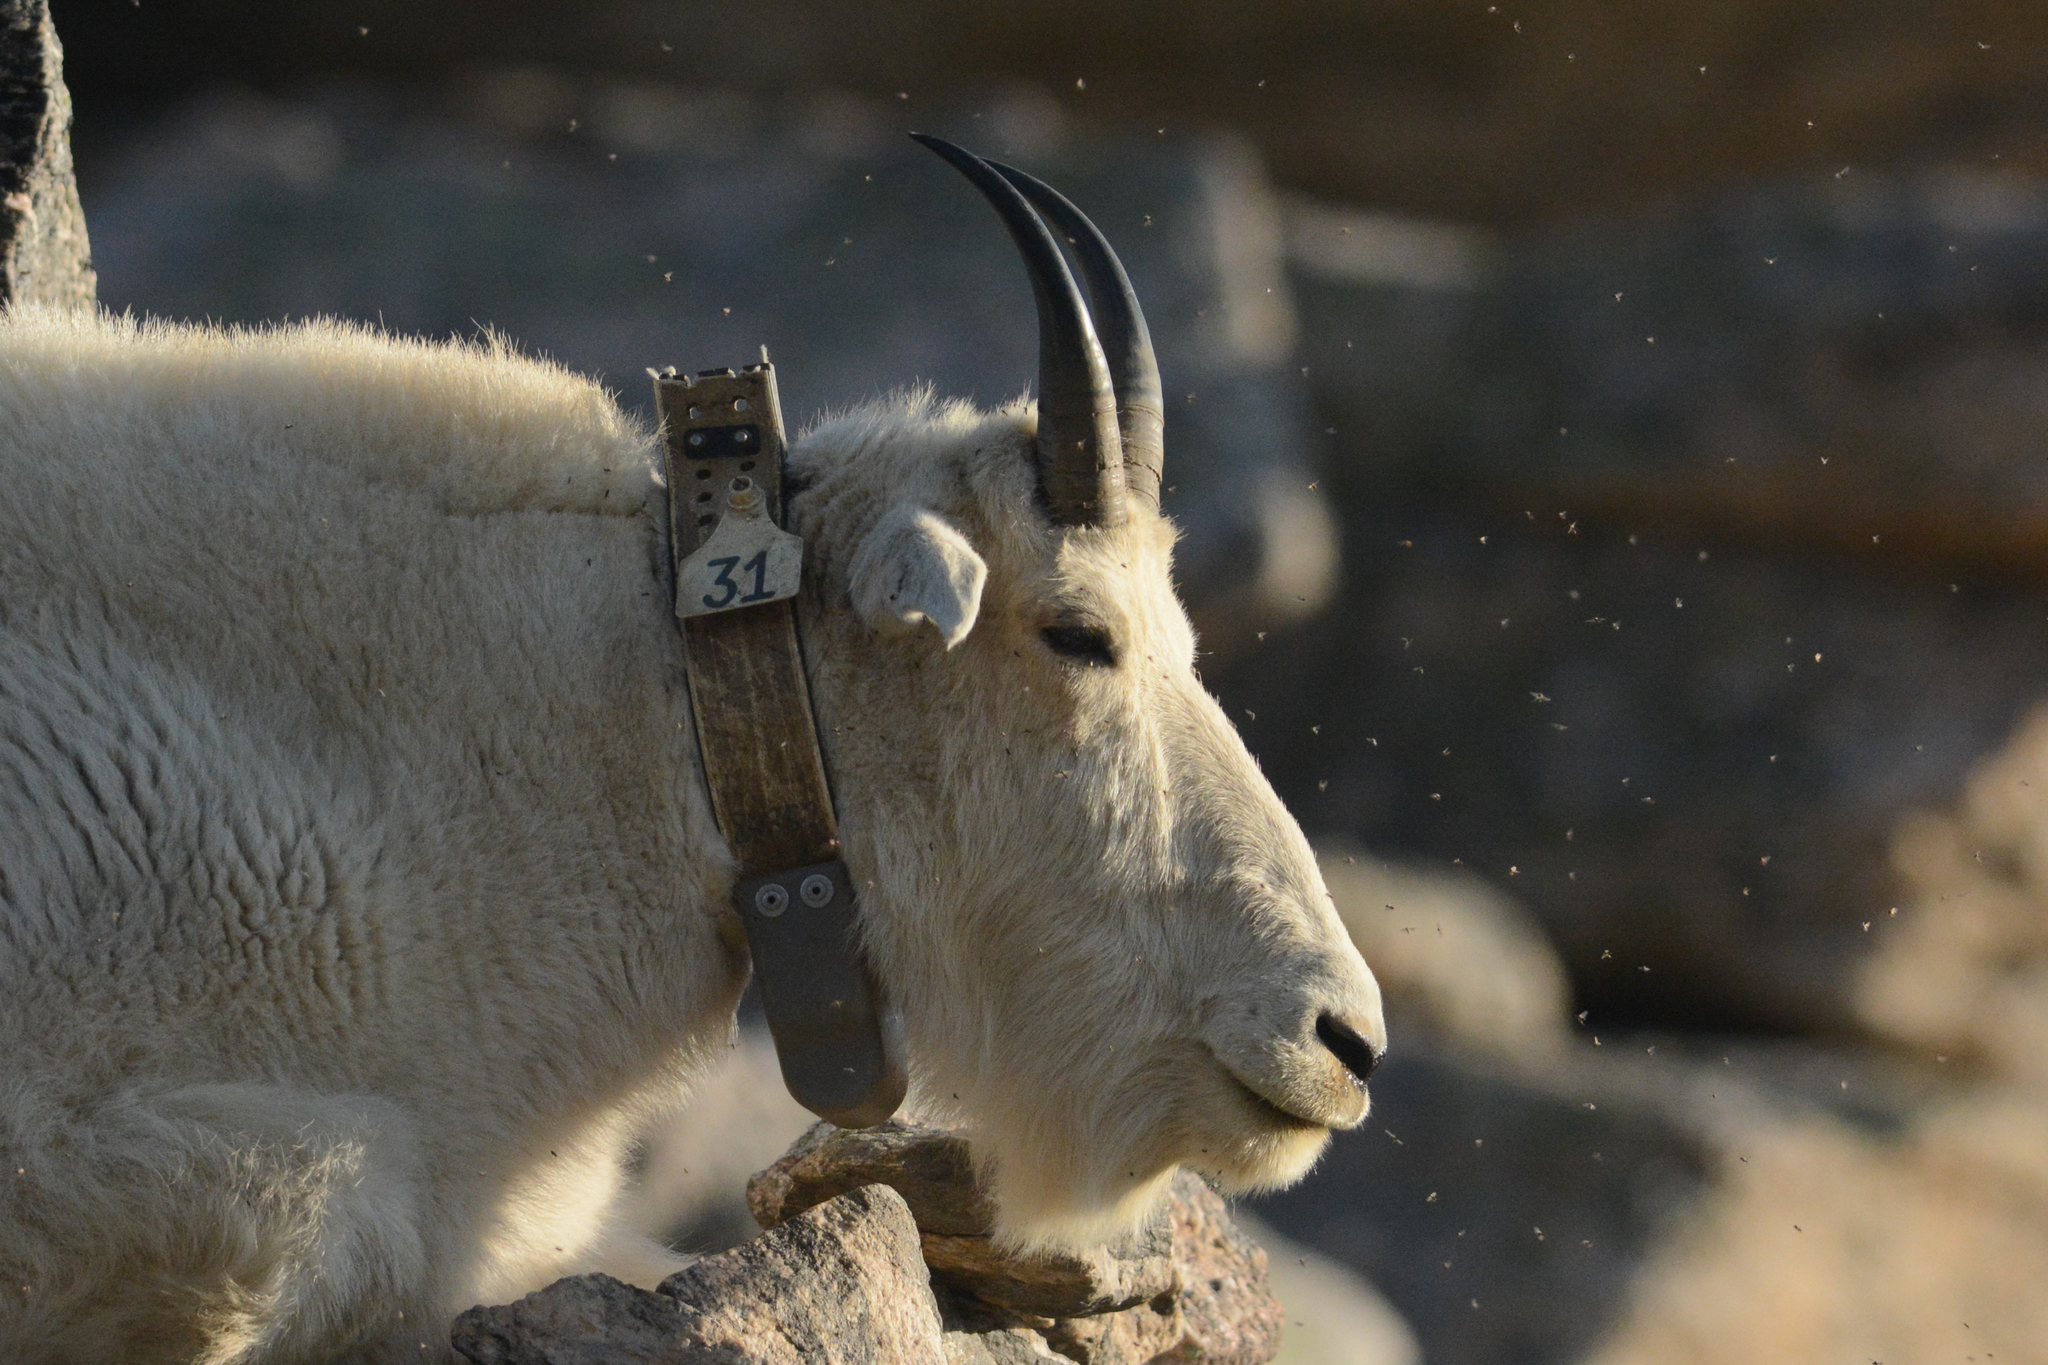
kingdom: Animalia
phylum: Chordata
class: Mammalia
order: Artiodactyla
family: Bovidae
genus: Oreamnos
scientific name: Oreamnos americanus
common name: Mountain goat
